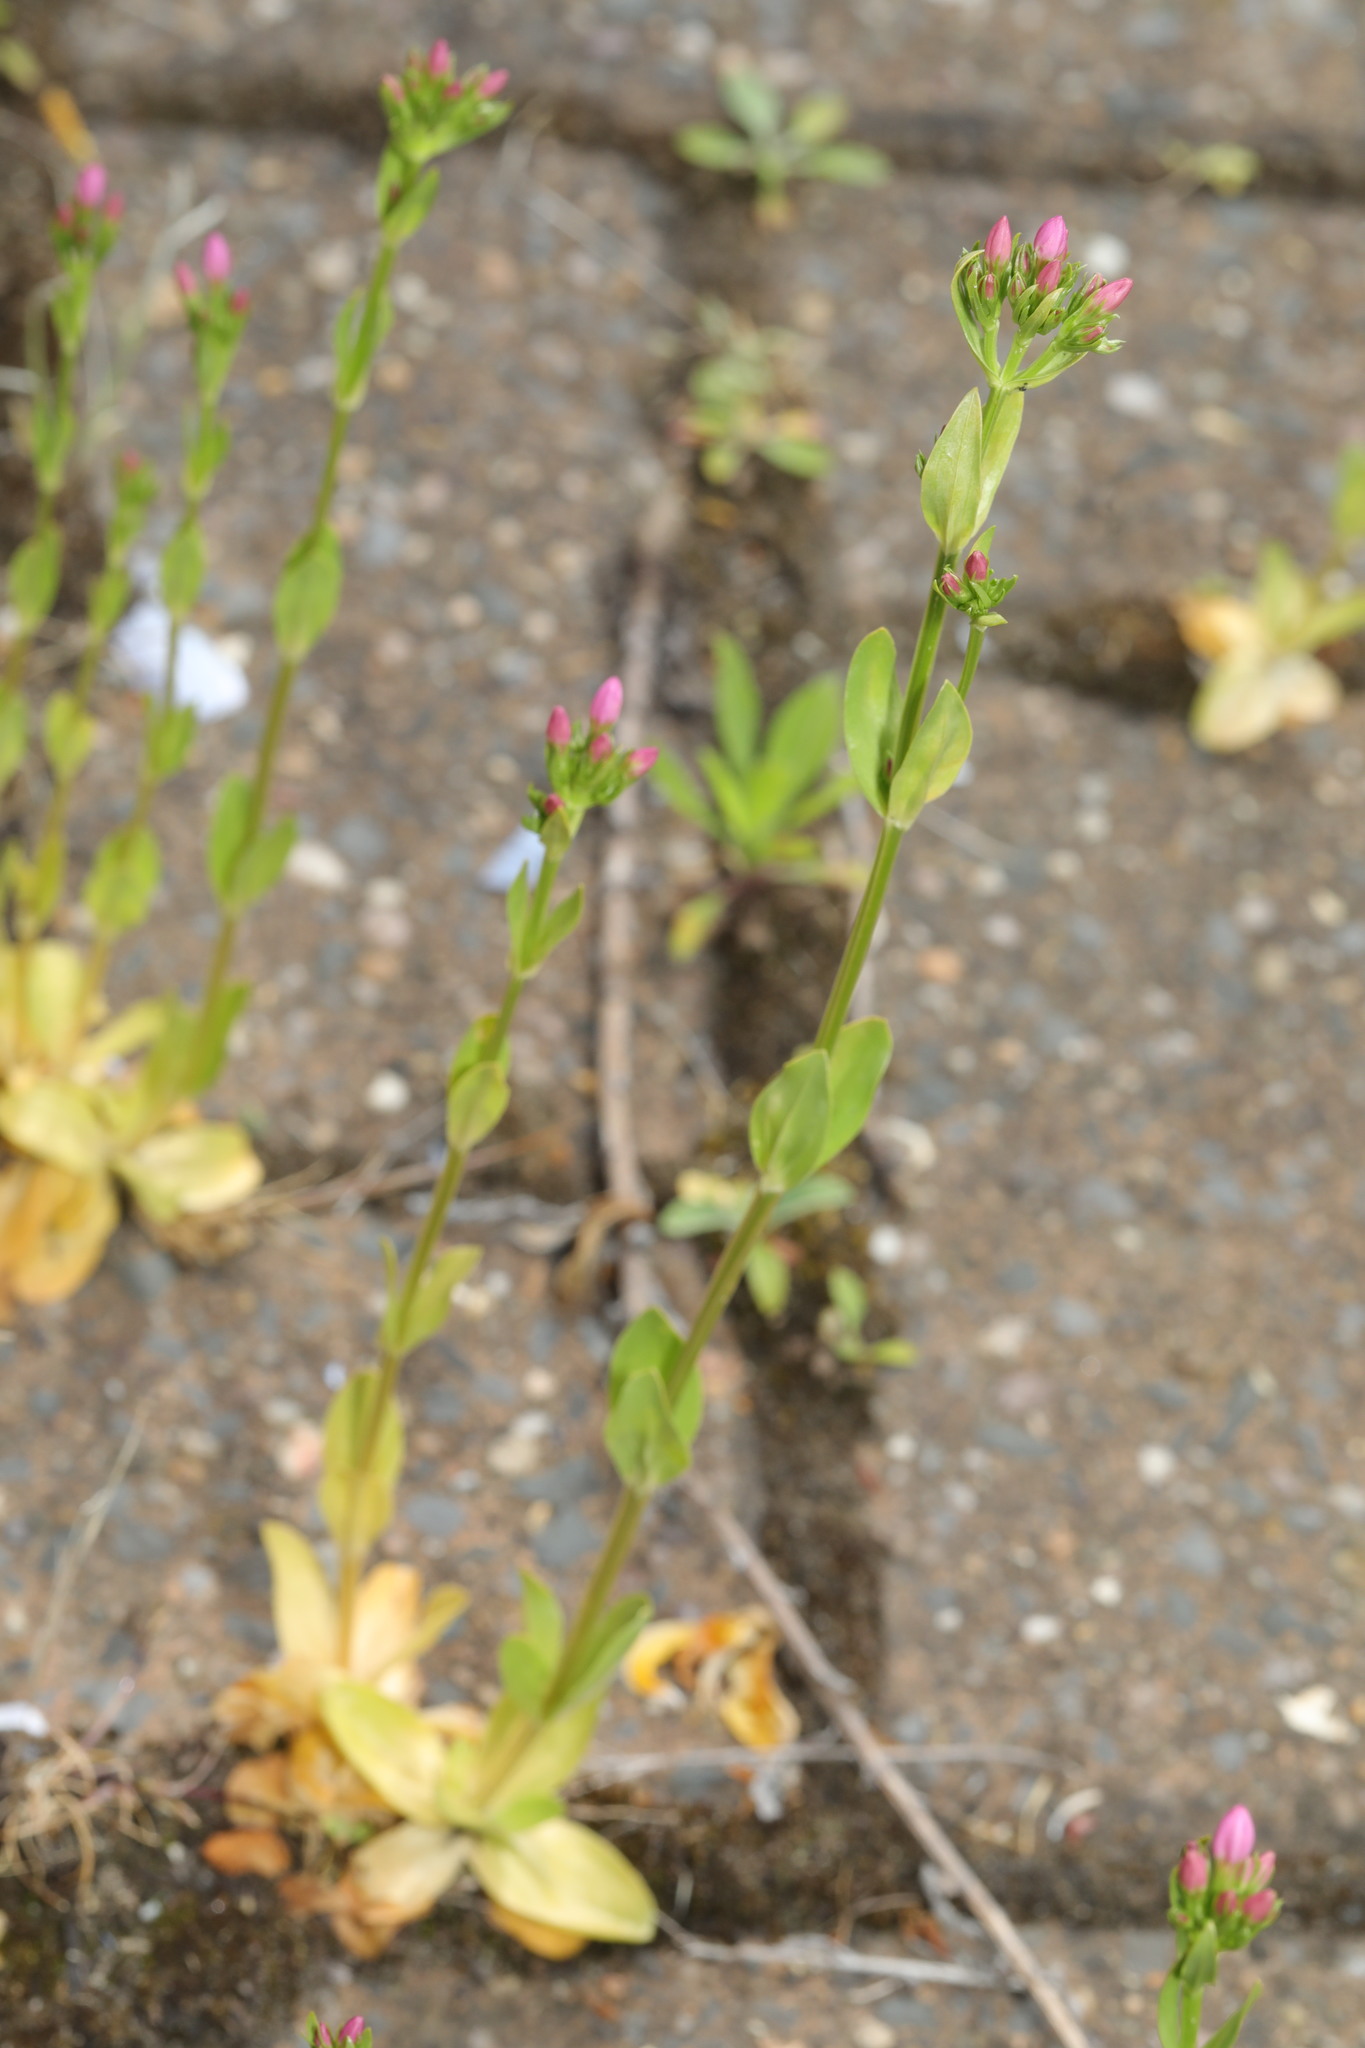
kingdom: Plantae
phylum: Tracheophyta
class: Magnoliopsida
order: Gentianales
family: Gentianaceae
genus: Centaurium
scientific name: Centaurium erythraea
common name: Common centaury
